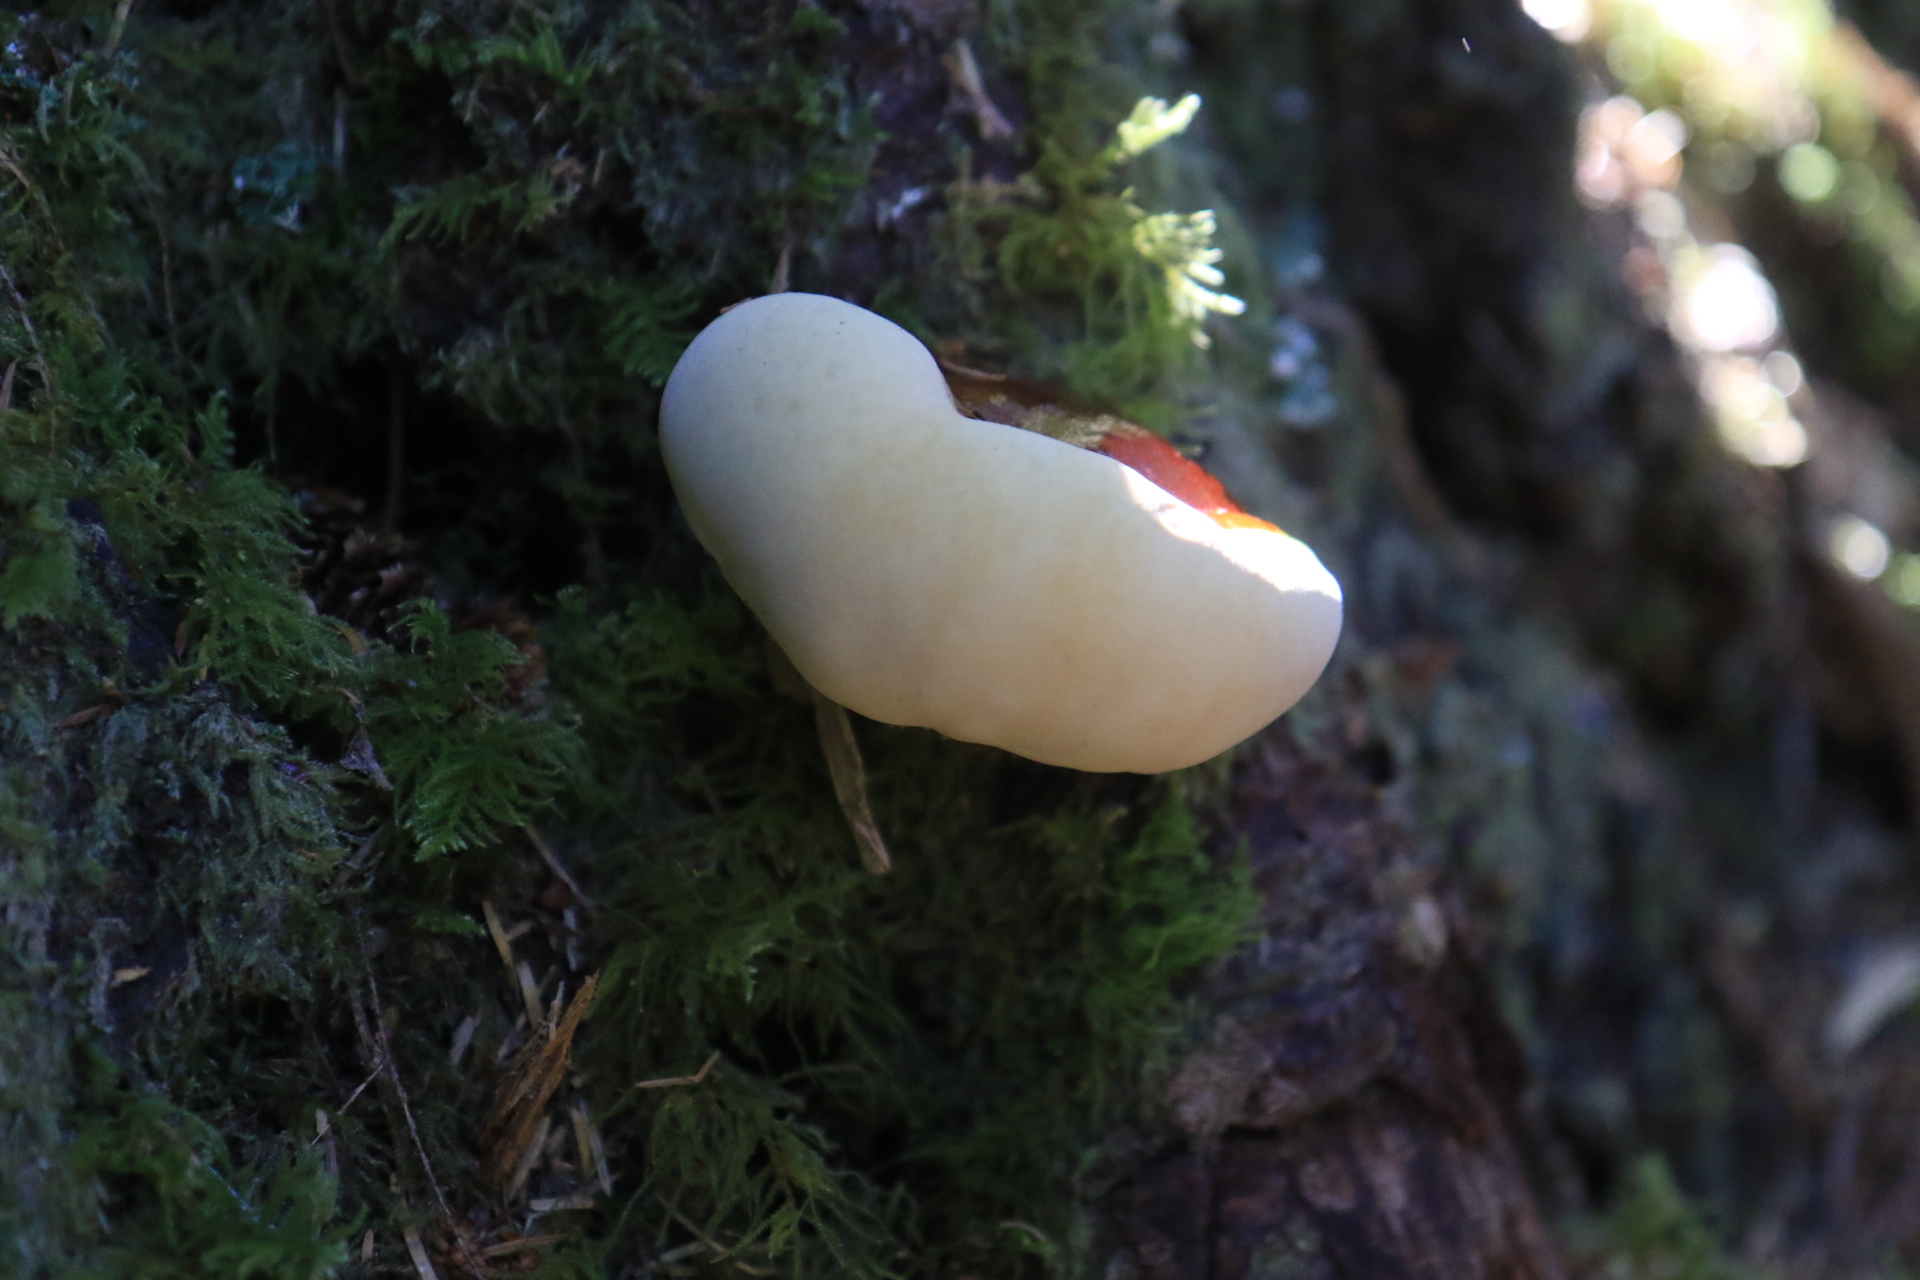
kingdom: Fungi
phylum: Basidiomycota
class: Agaricomycetes
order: Polyporales
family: Polyporaceae
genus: Ganoderma
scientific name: Ganoderma oregonense
